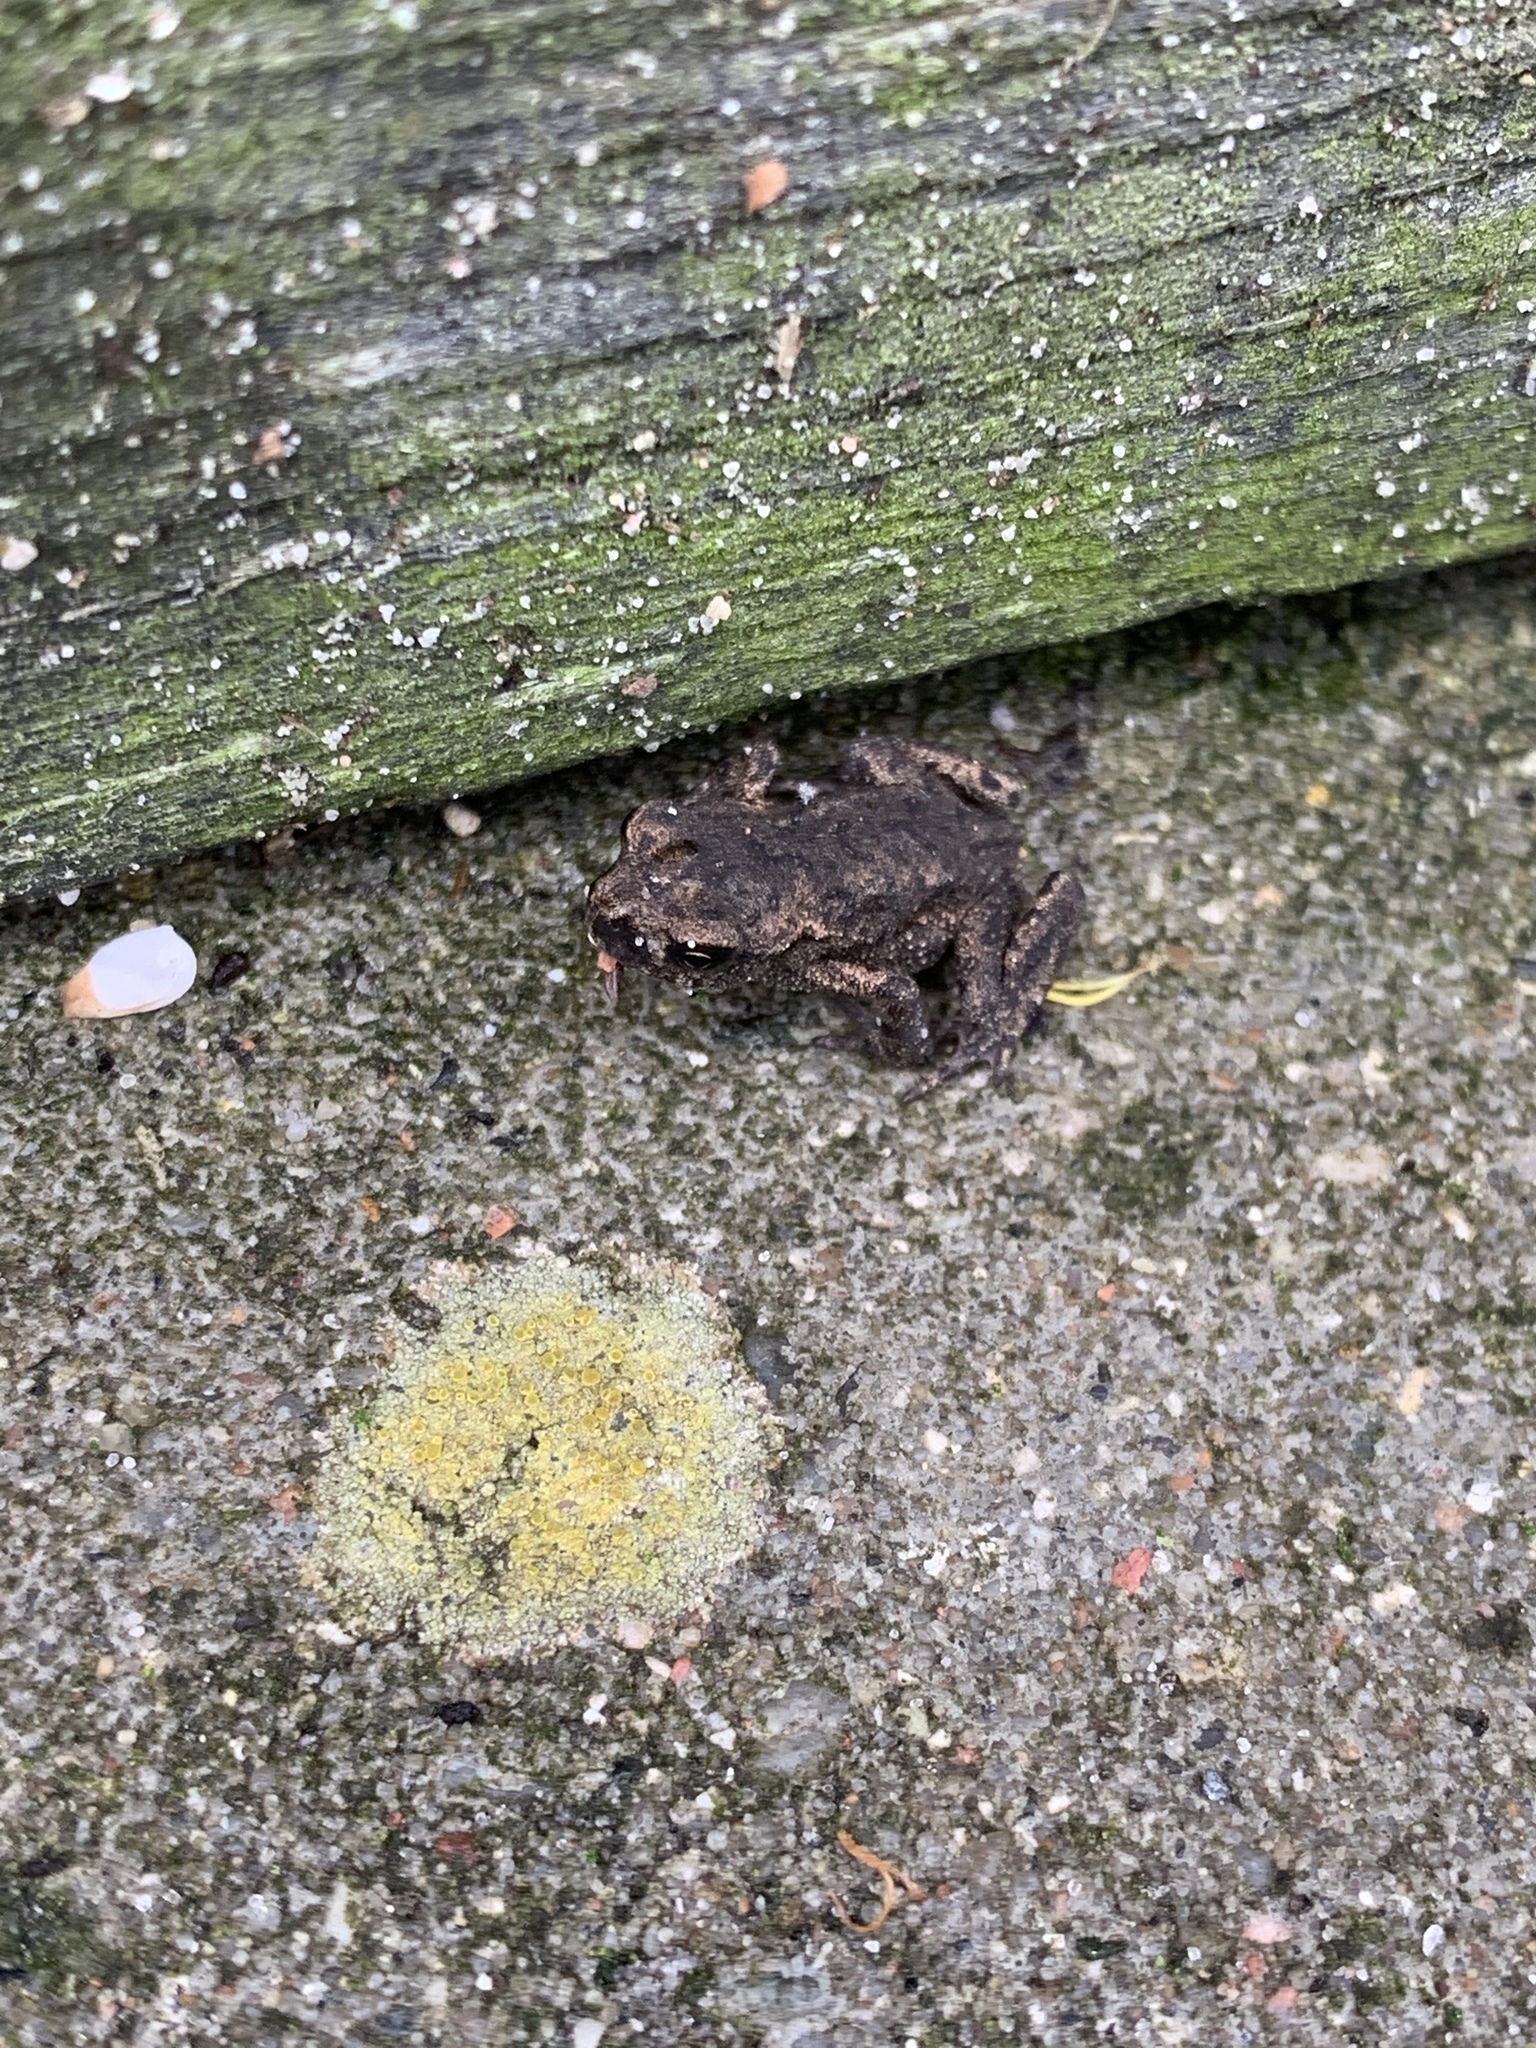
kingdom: Animalia
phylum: Chordata
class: Amphibia
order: Anura
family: Bufonidae
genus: Bufo
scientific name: Bufo bufo
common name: Common toad
